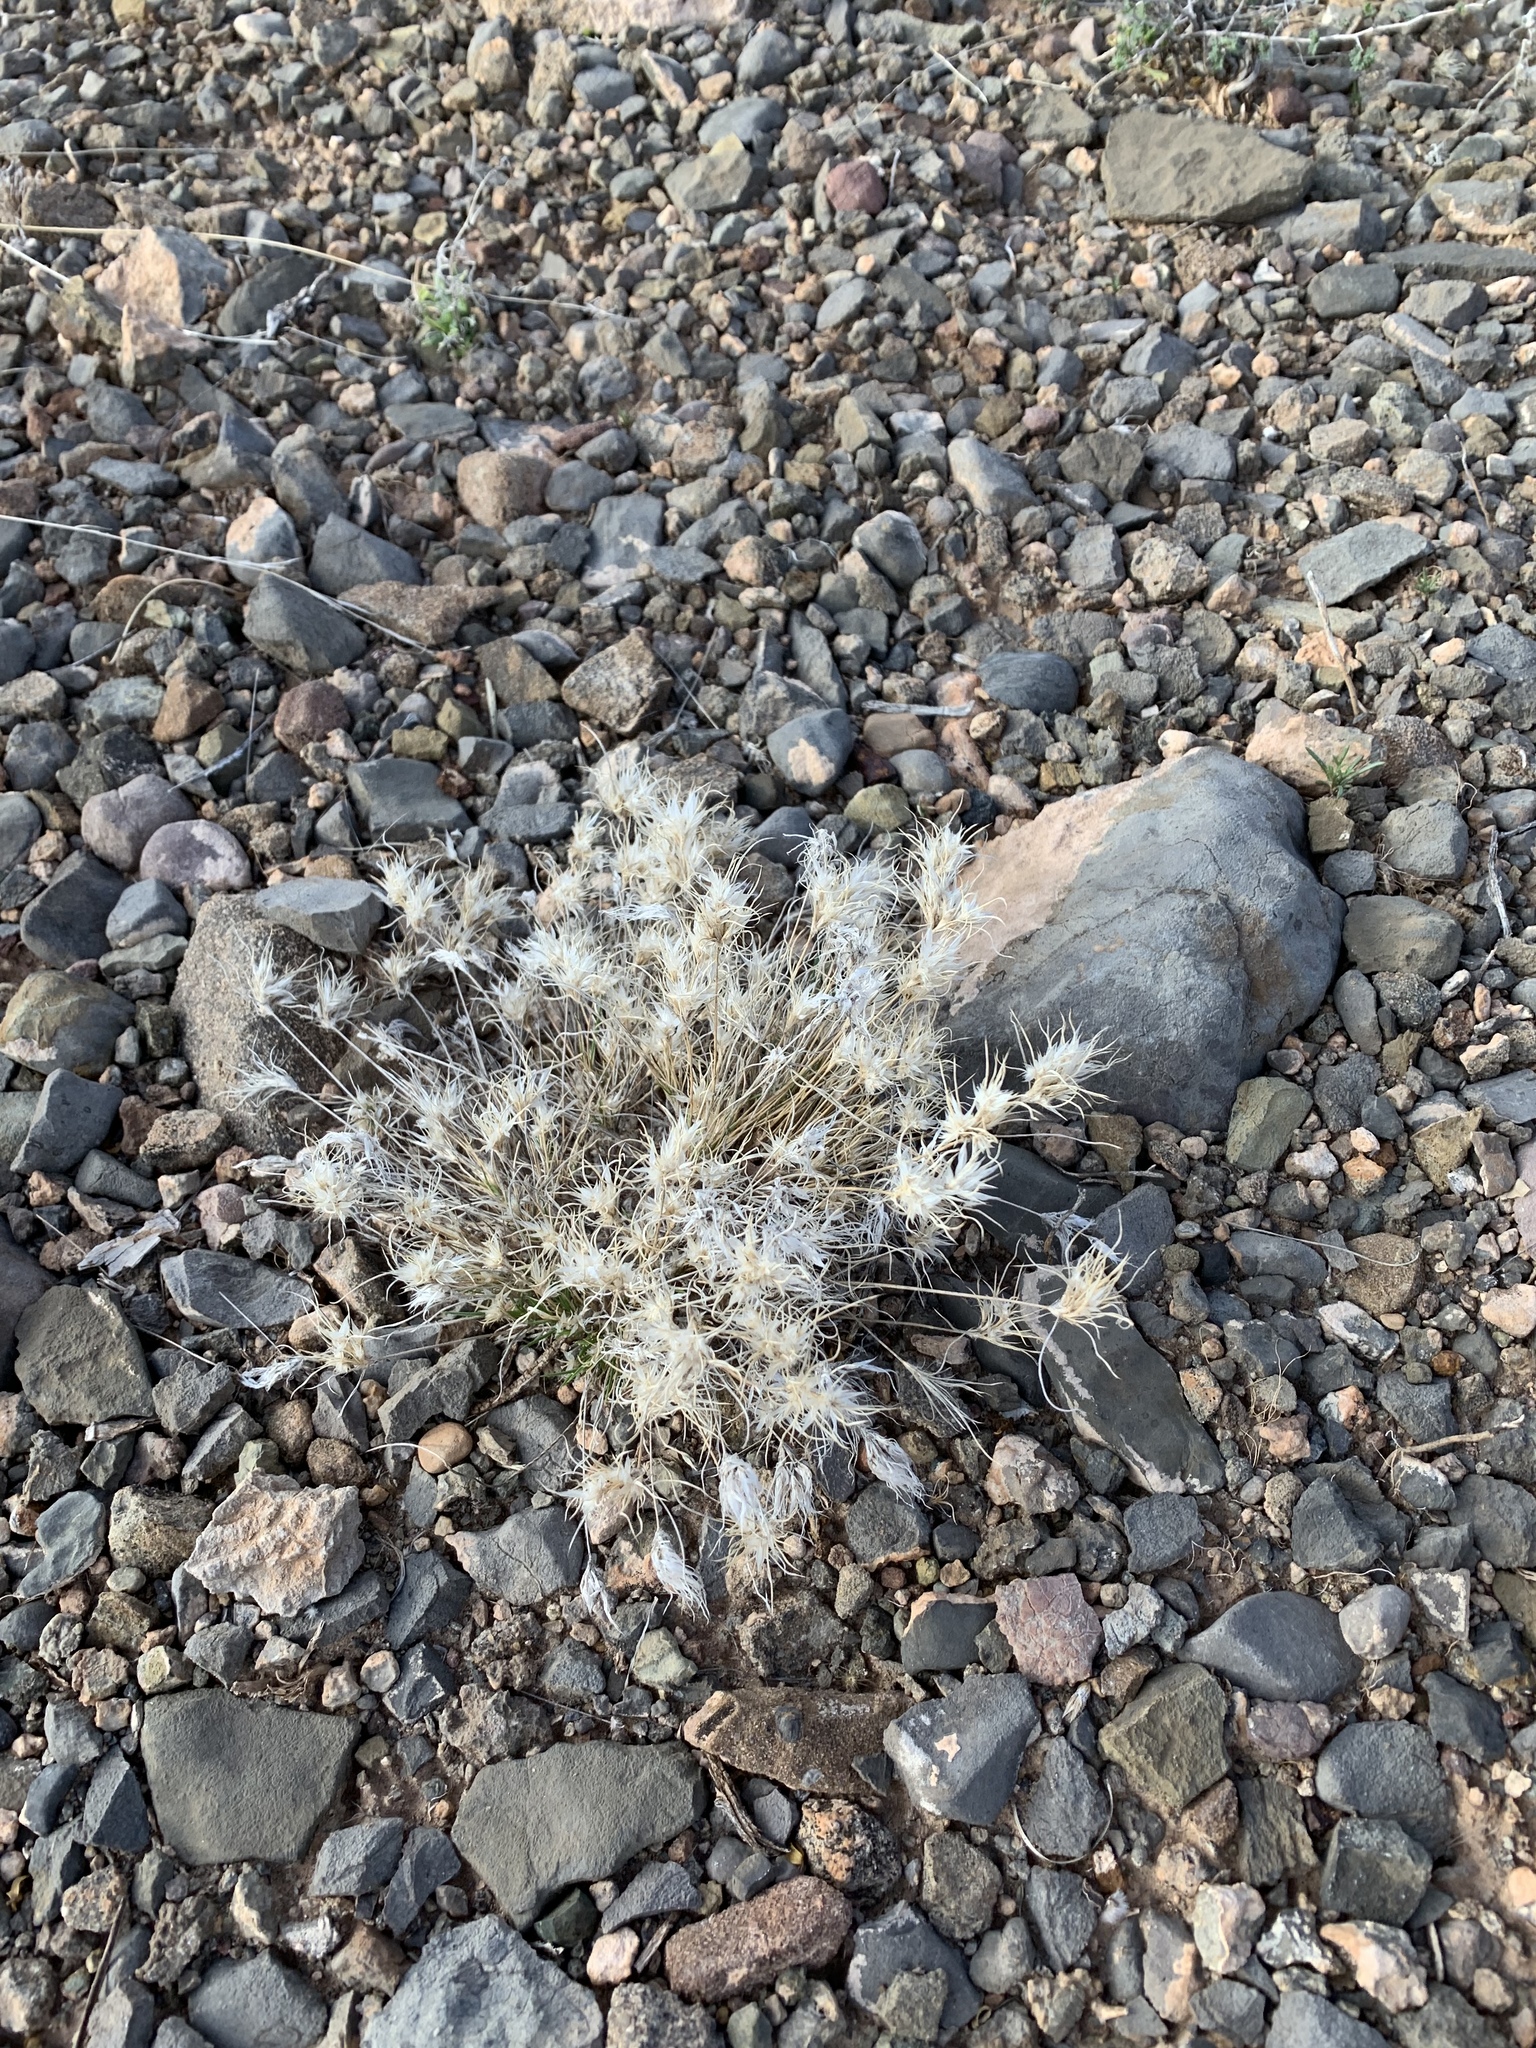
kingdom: Plantae
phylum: Tracheophyta
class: Liliopsida
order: Poales
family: Poaceae
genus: Dasyochloa
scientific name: Dasyochloa pulchella
